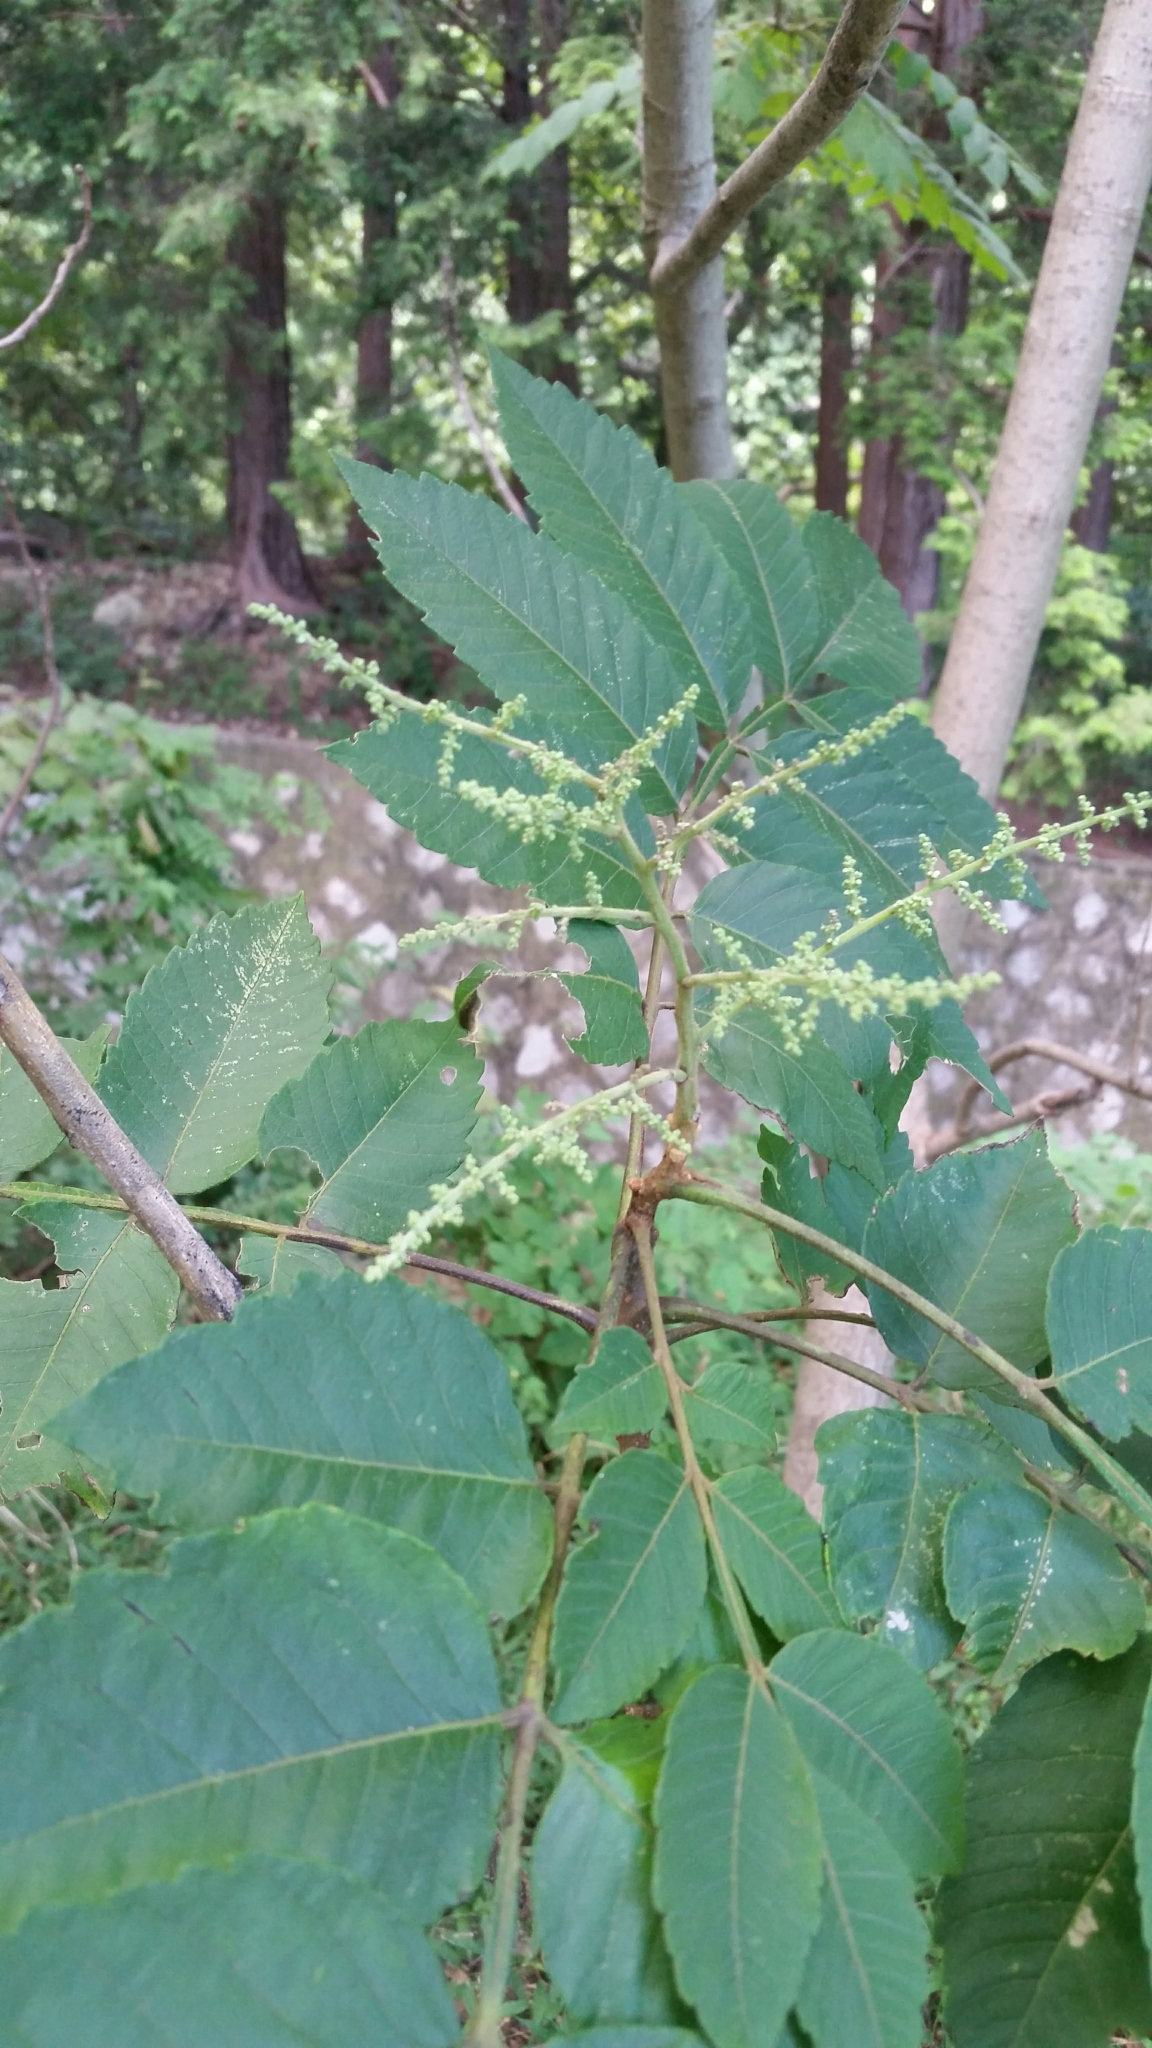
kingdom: Plantae
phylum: Tracheophyta
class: Magnoliopsida
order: Sapindales
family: Anacardiaceae
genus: Rhus
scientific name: Rhus chinensis
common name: Chinese gall
